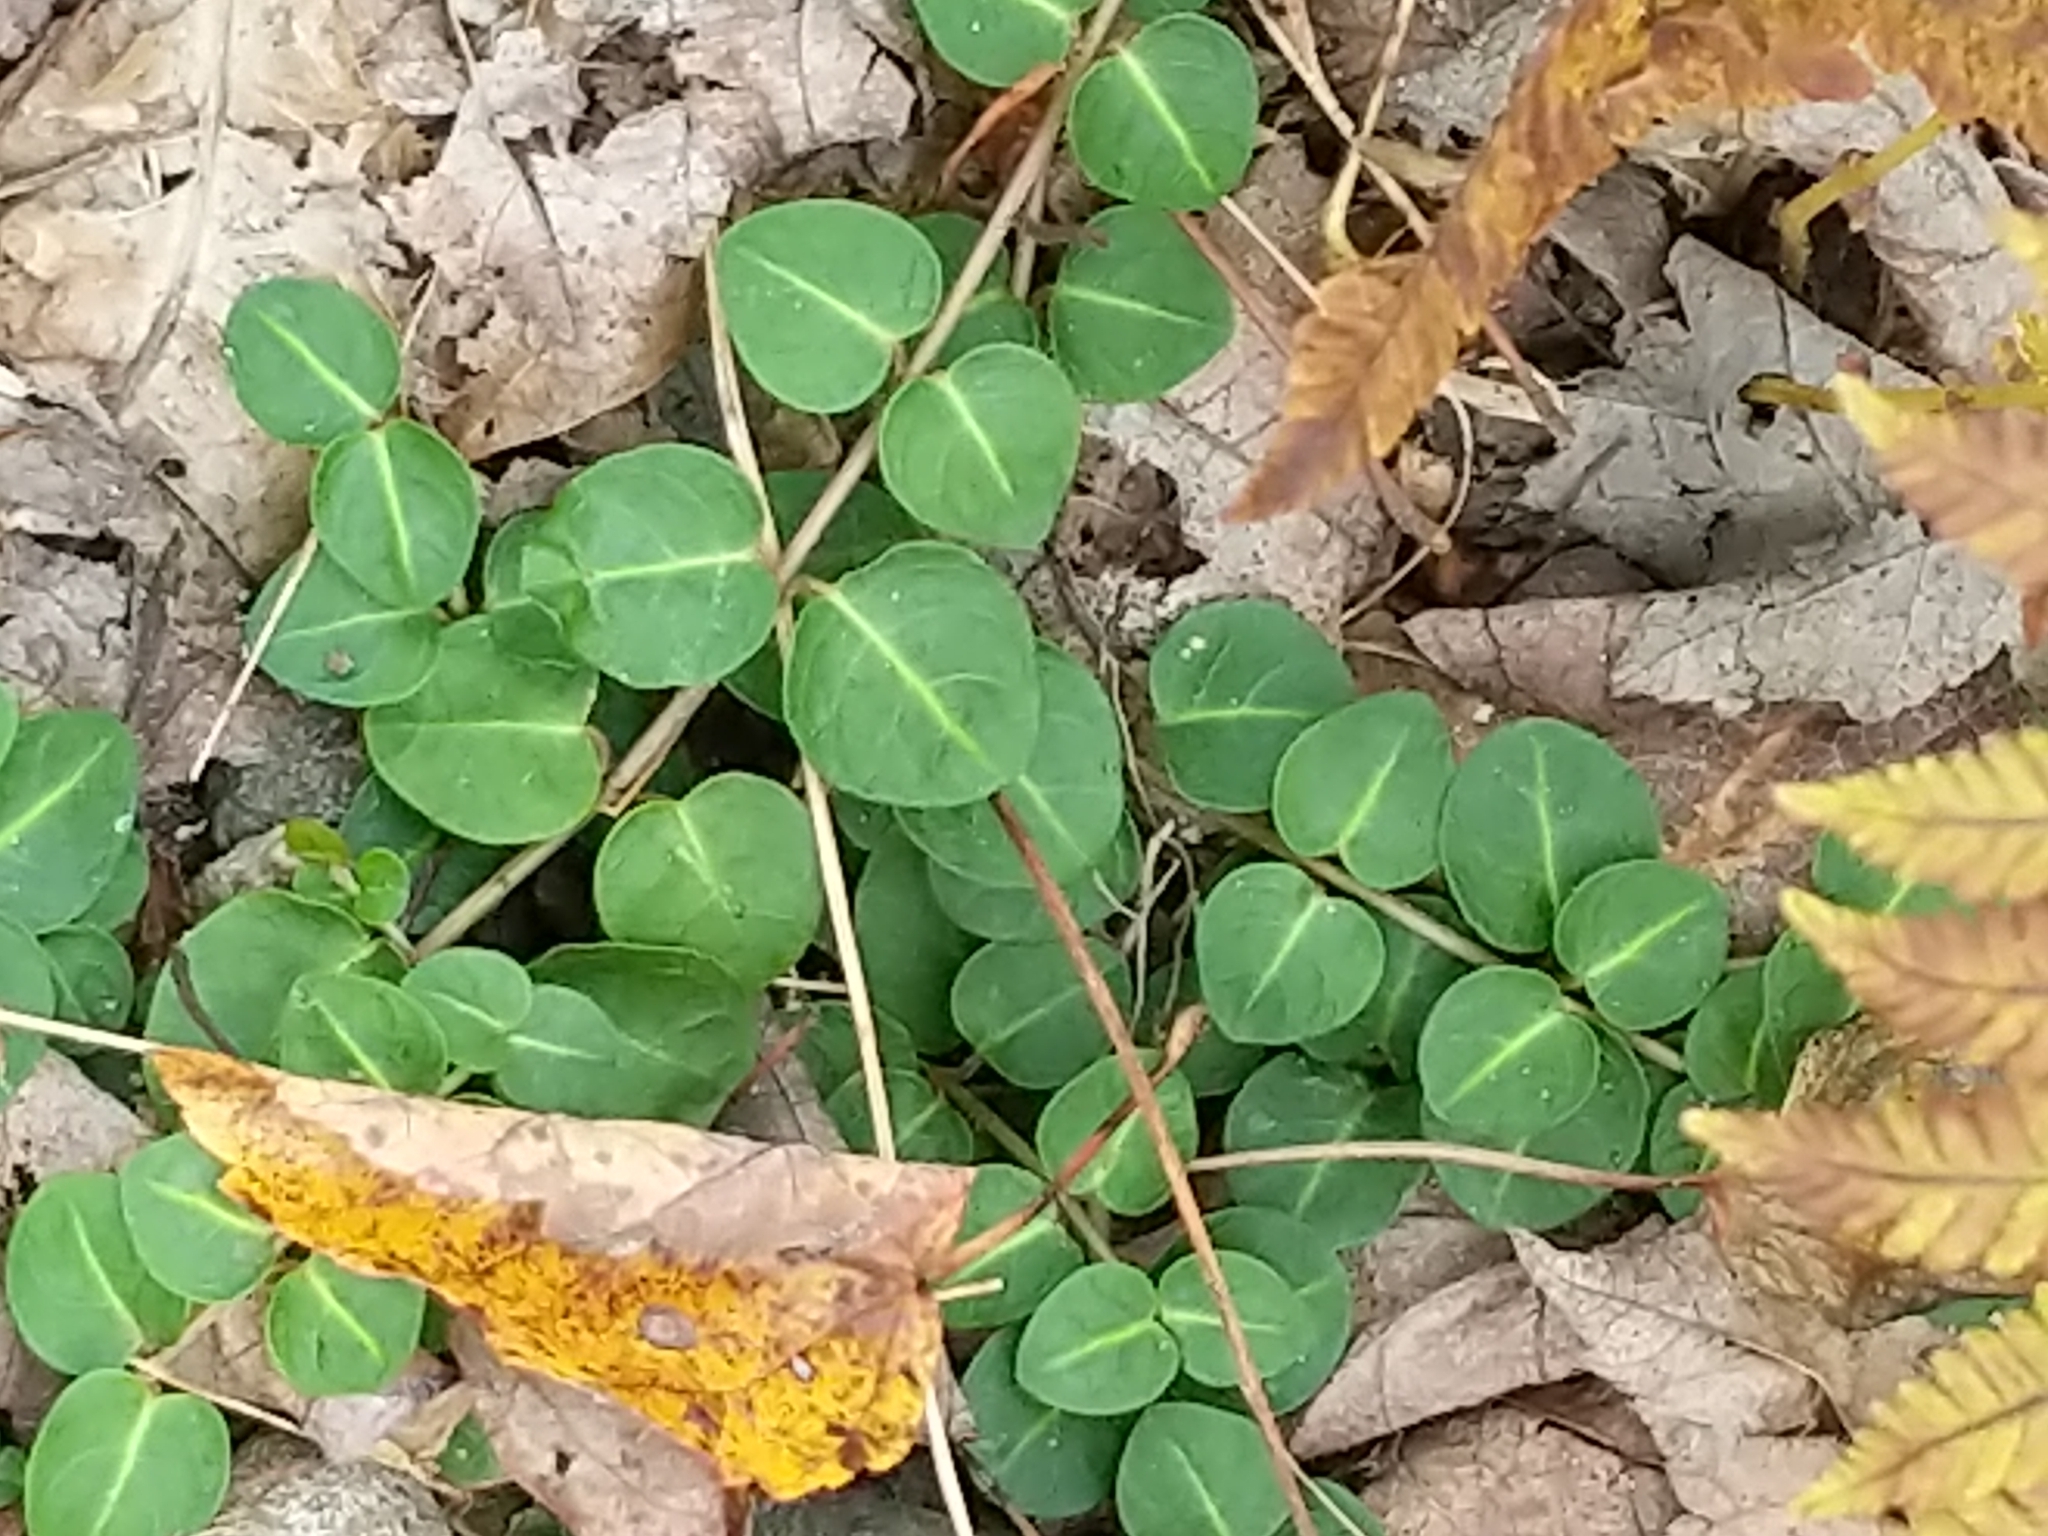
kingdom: Plantae
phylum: Tracheophyta
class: Magnoliopsida
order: Gentianales
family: Rubiaceae
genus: Mitchella
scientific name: Mitchella repens
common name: Partridge-berry
